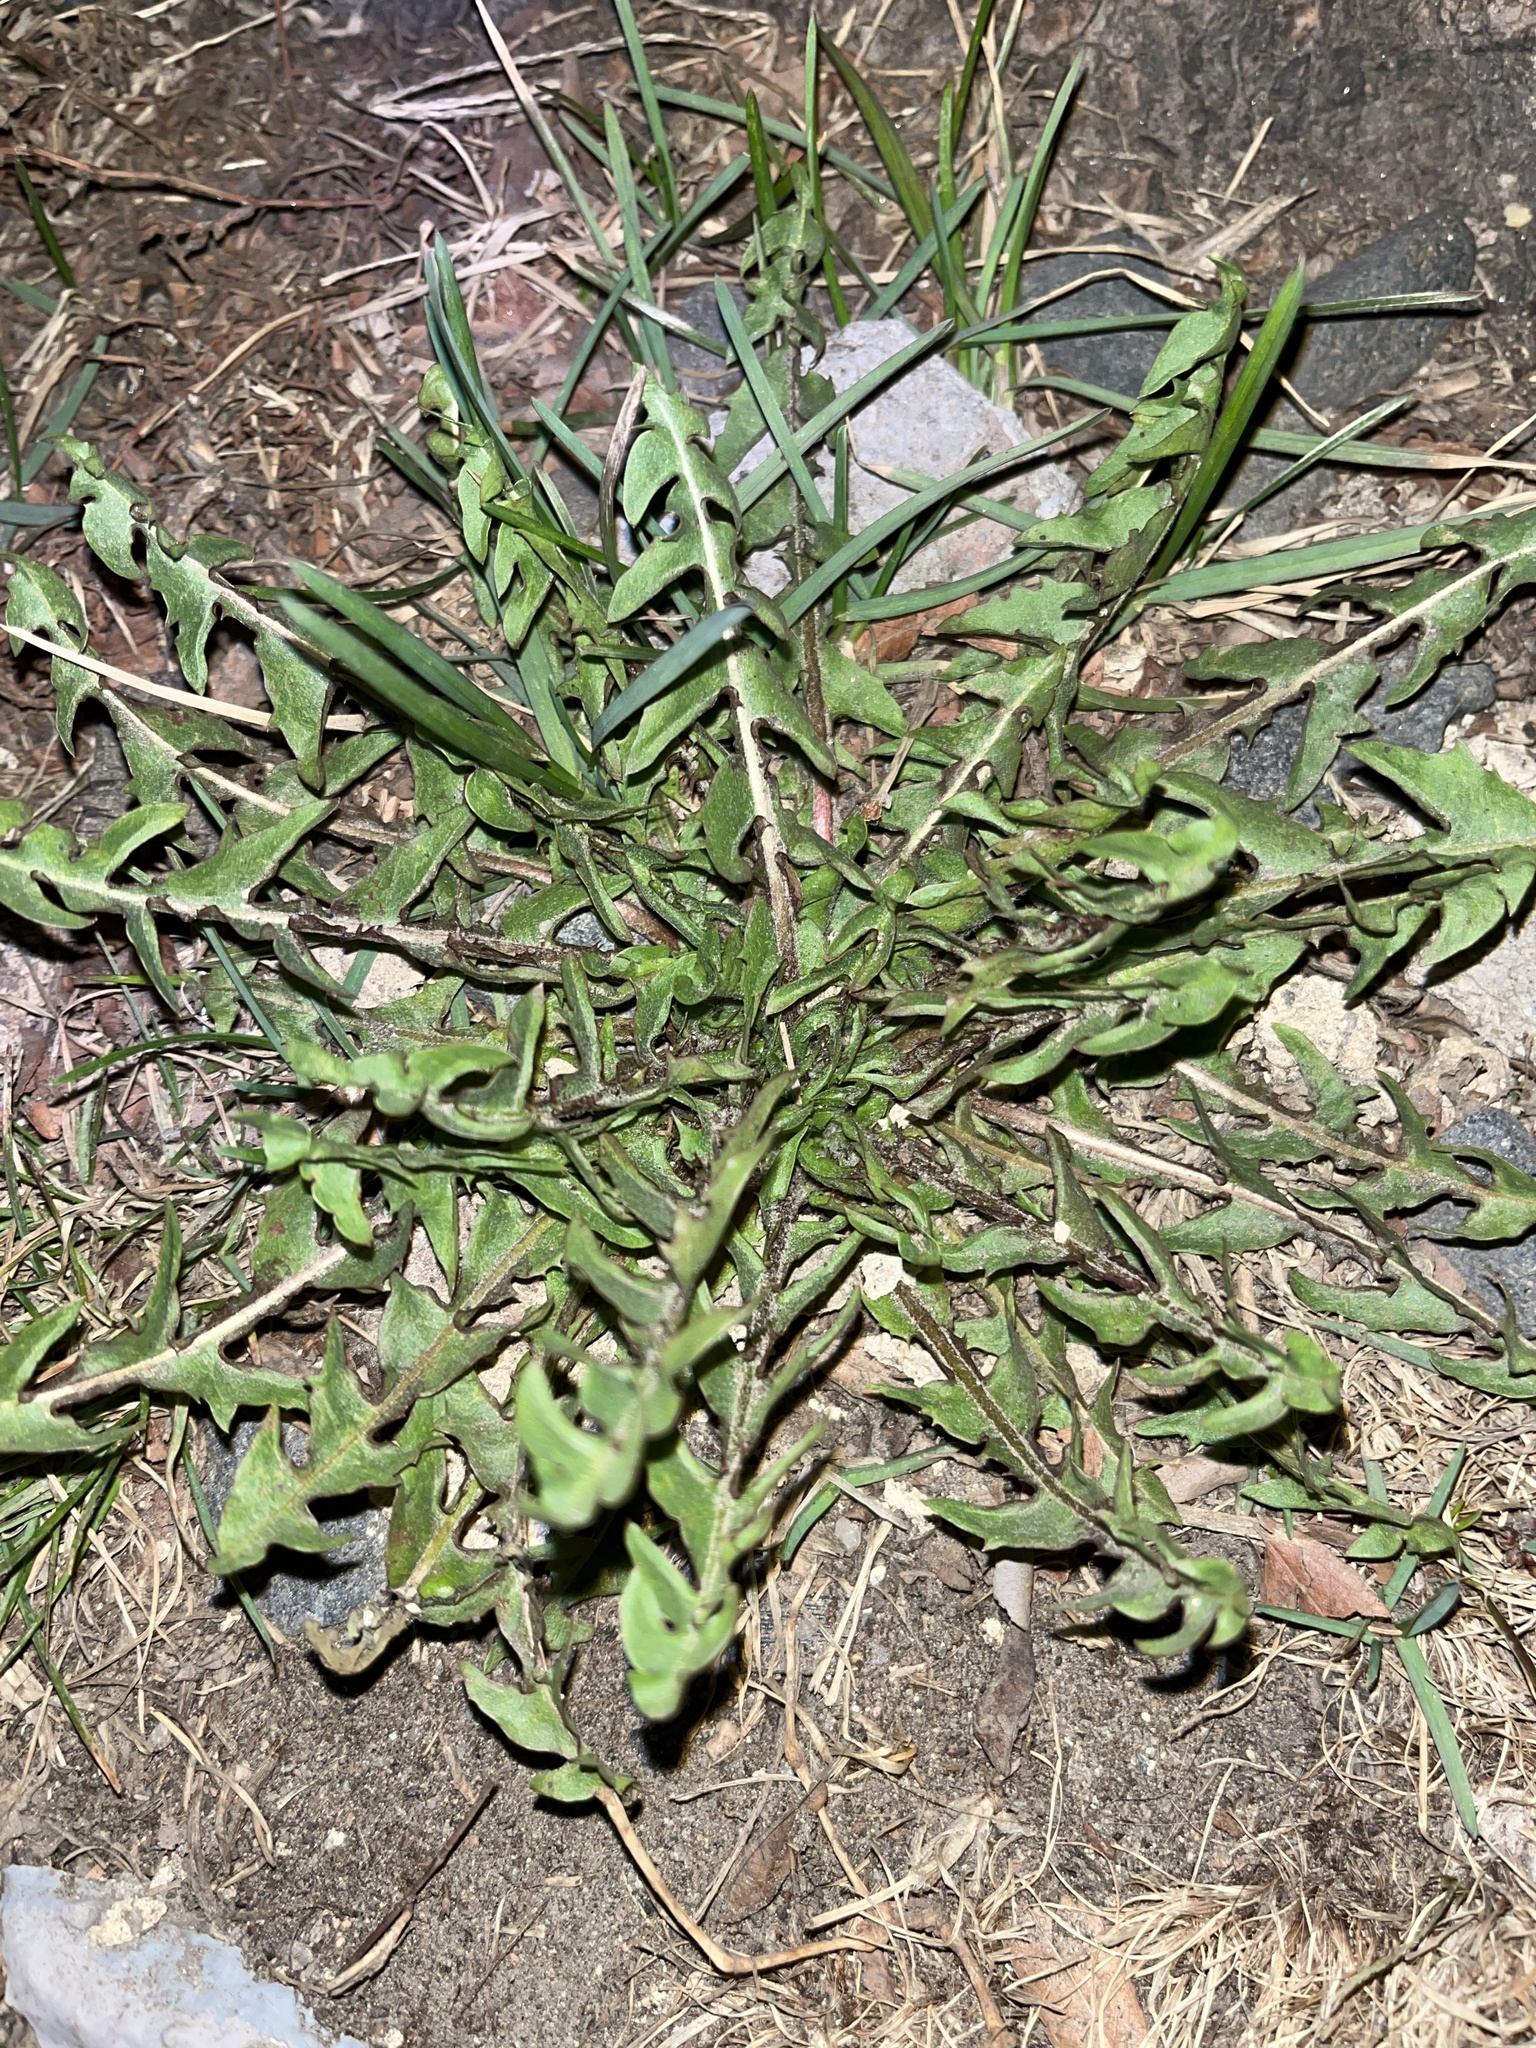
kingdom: Plantae
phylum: Tracheophyta
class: Magnoliopsida
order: Asterales
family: Asteraceae
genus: Taraxacum
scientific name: Taraxacum officinale
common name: Common dandelion
